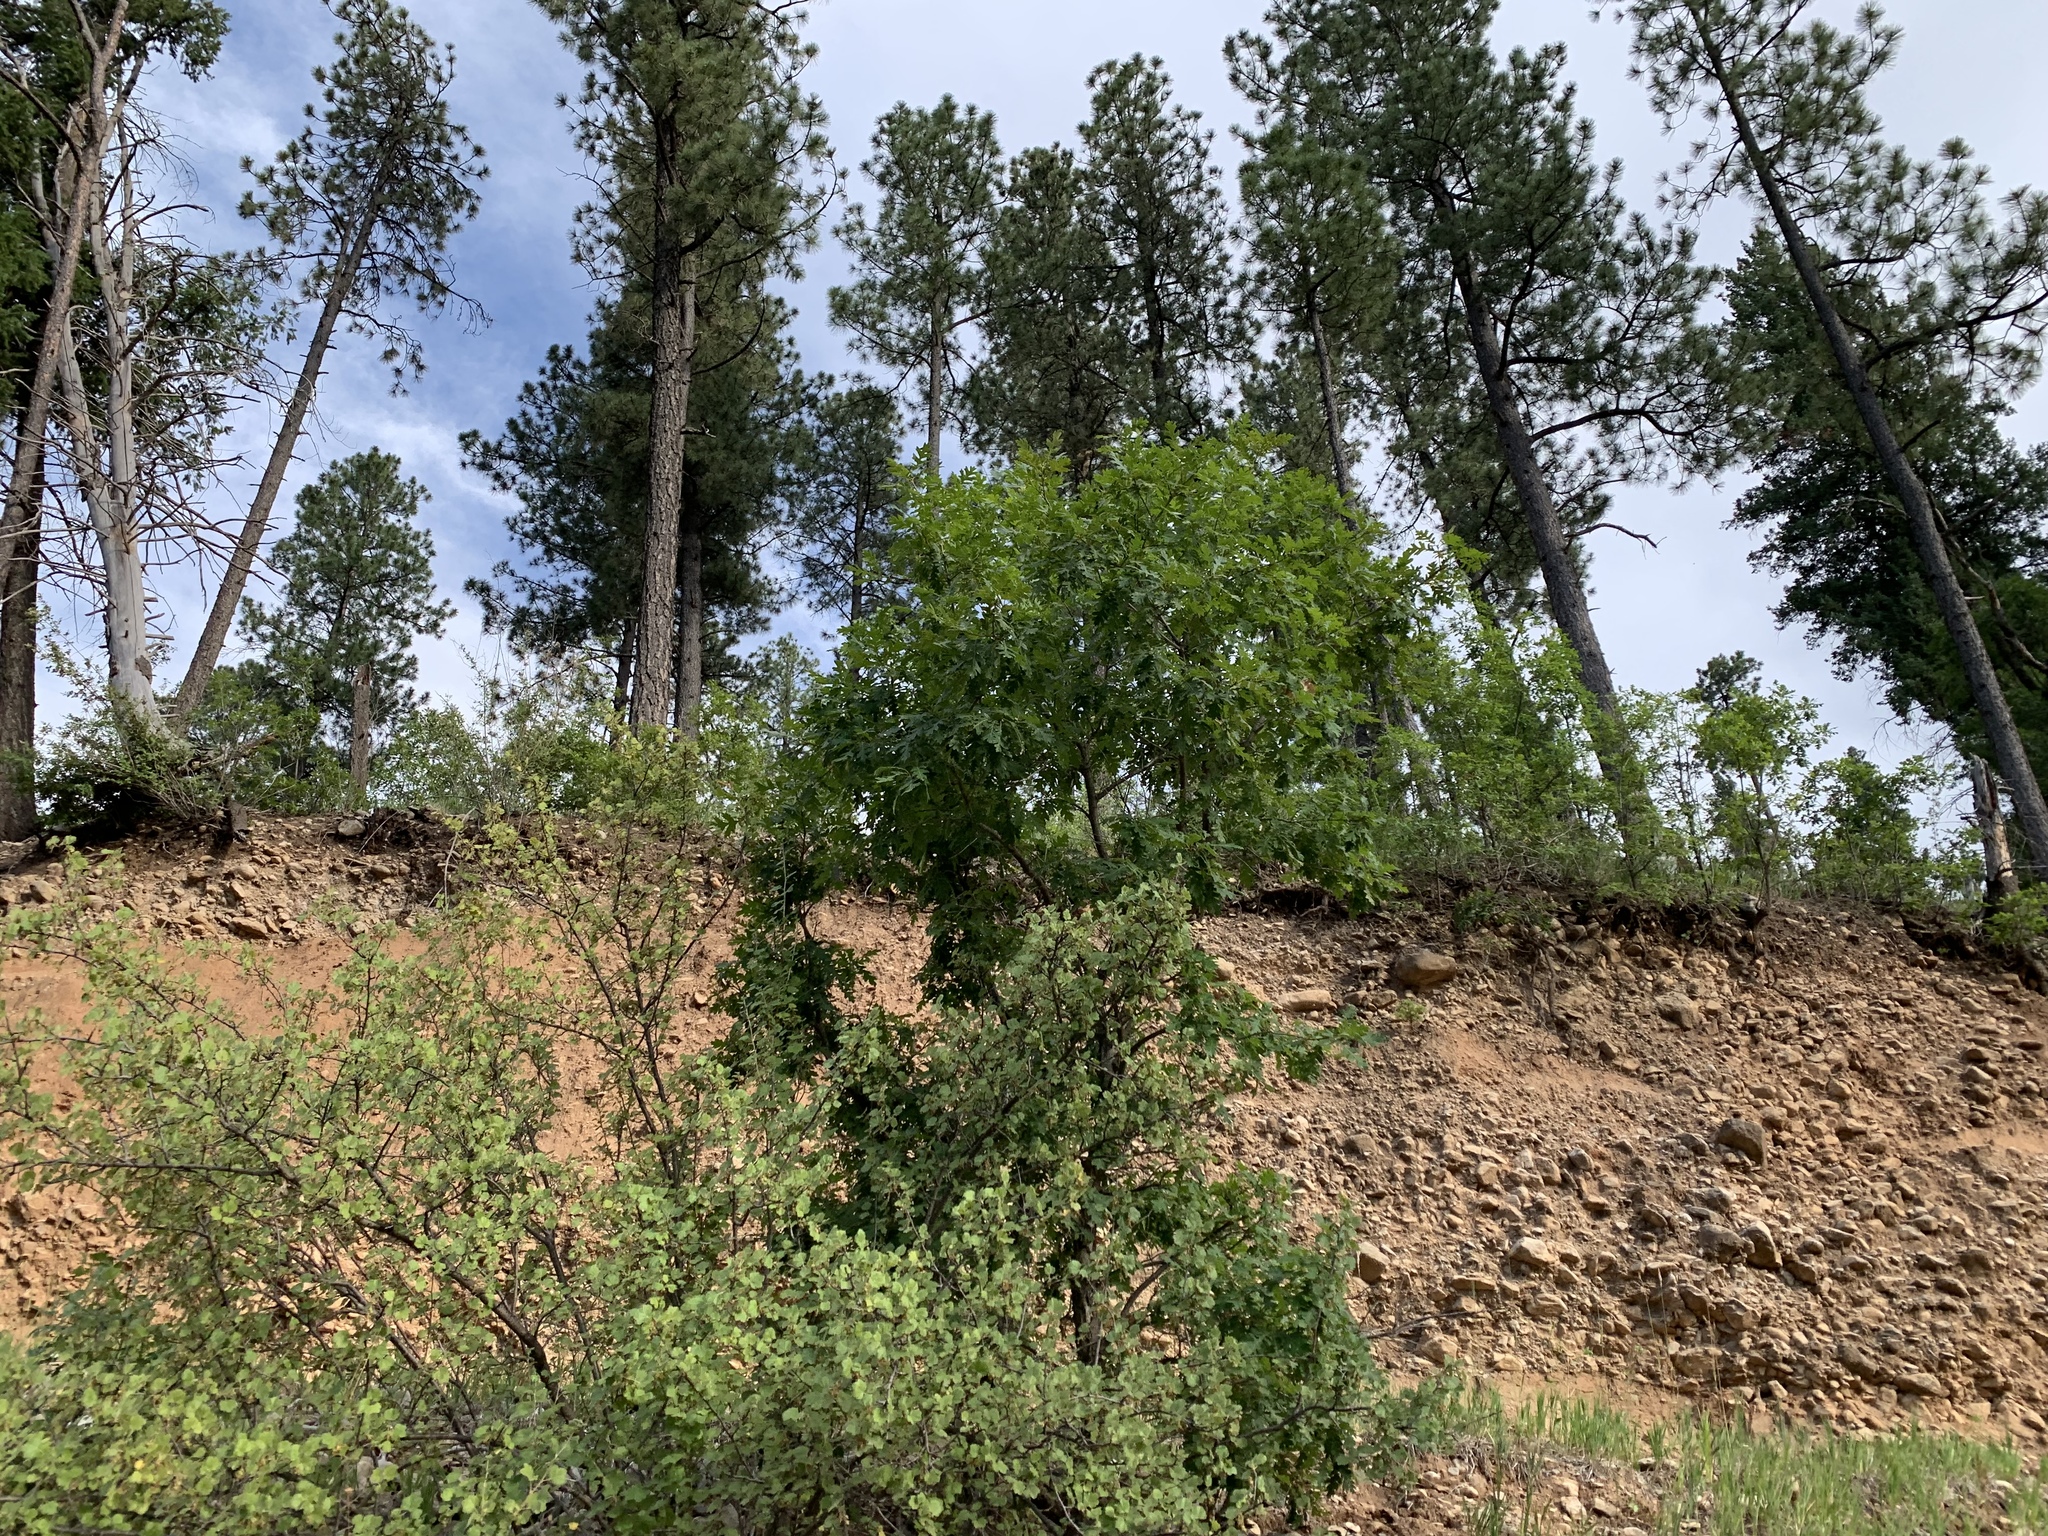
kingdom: Plantae
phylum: Tracheophyta
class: Magnoliopsida
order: Fagales
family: Fagaceae
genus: Quercus
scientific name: Quercus gambelii
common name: Gambel oak
